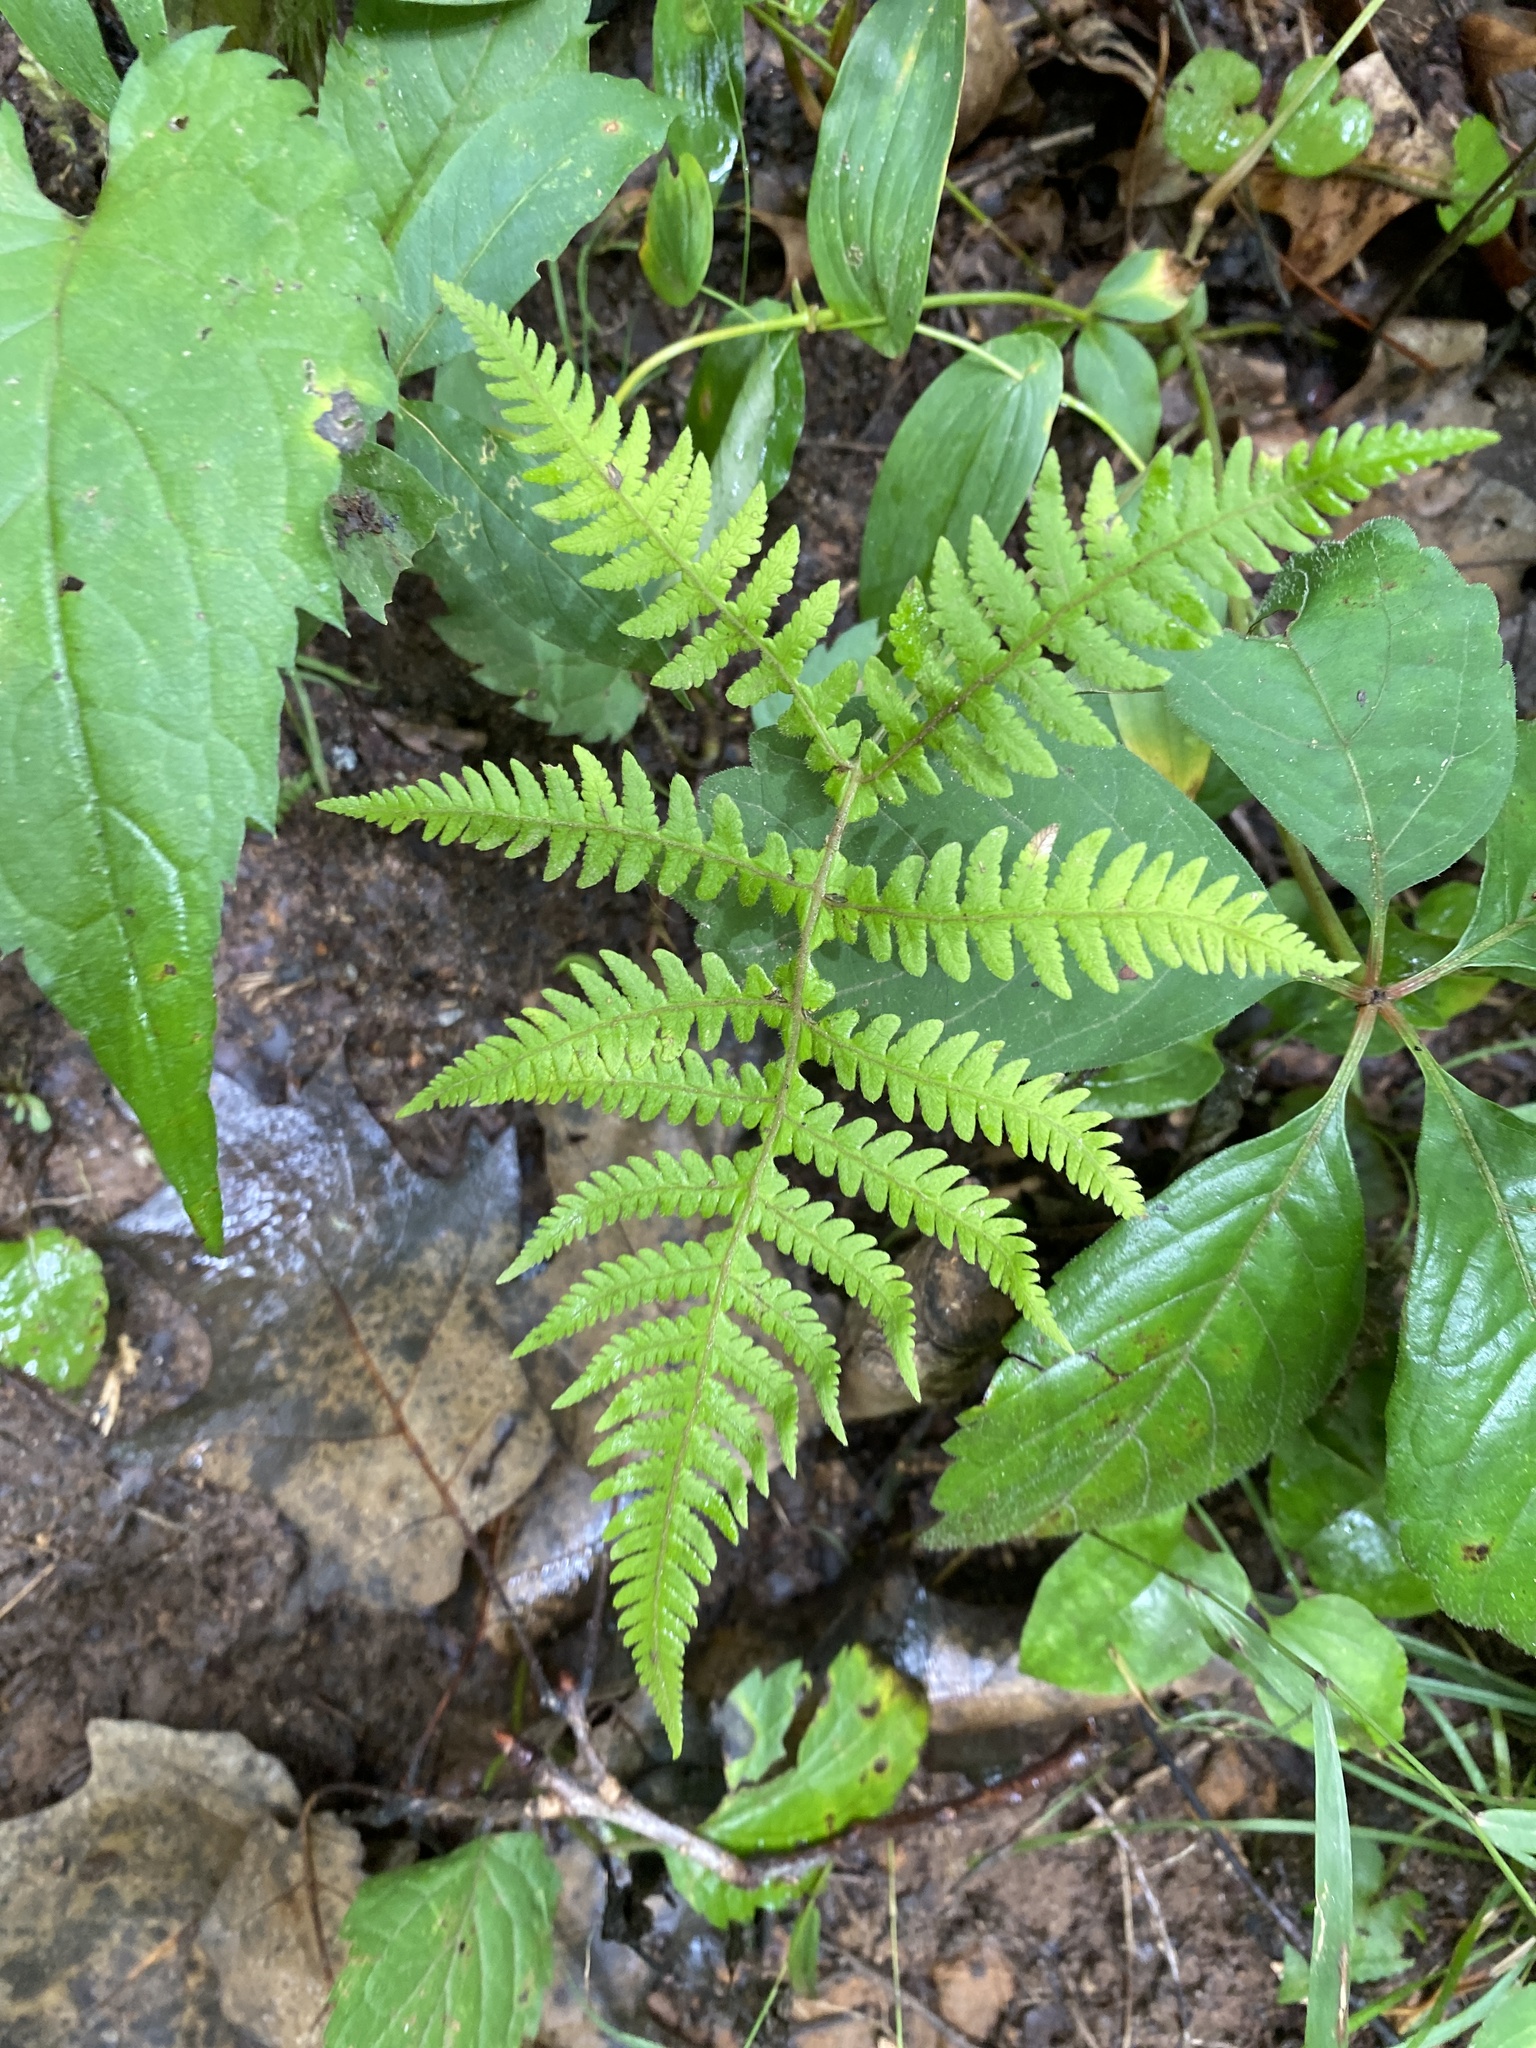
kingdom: Plantae
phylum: Tracheophyta
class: Polypodiopsida
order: Polypodiales
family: Thelypteridaceae
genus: Phegopteris
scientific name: Phegopteris hexagonoptera
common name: Broad beech fern
